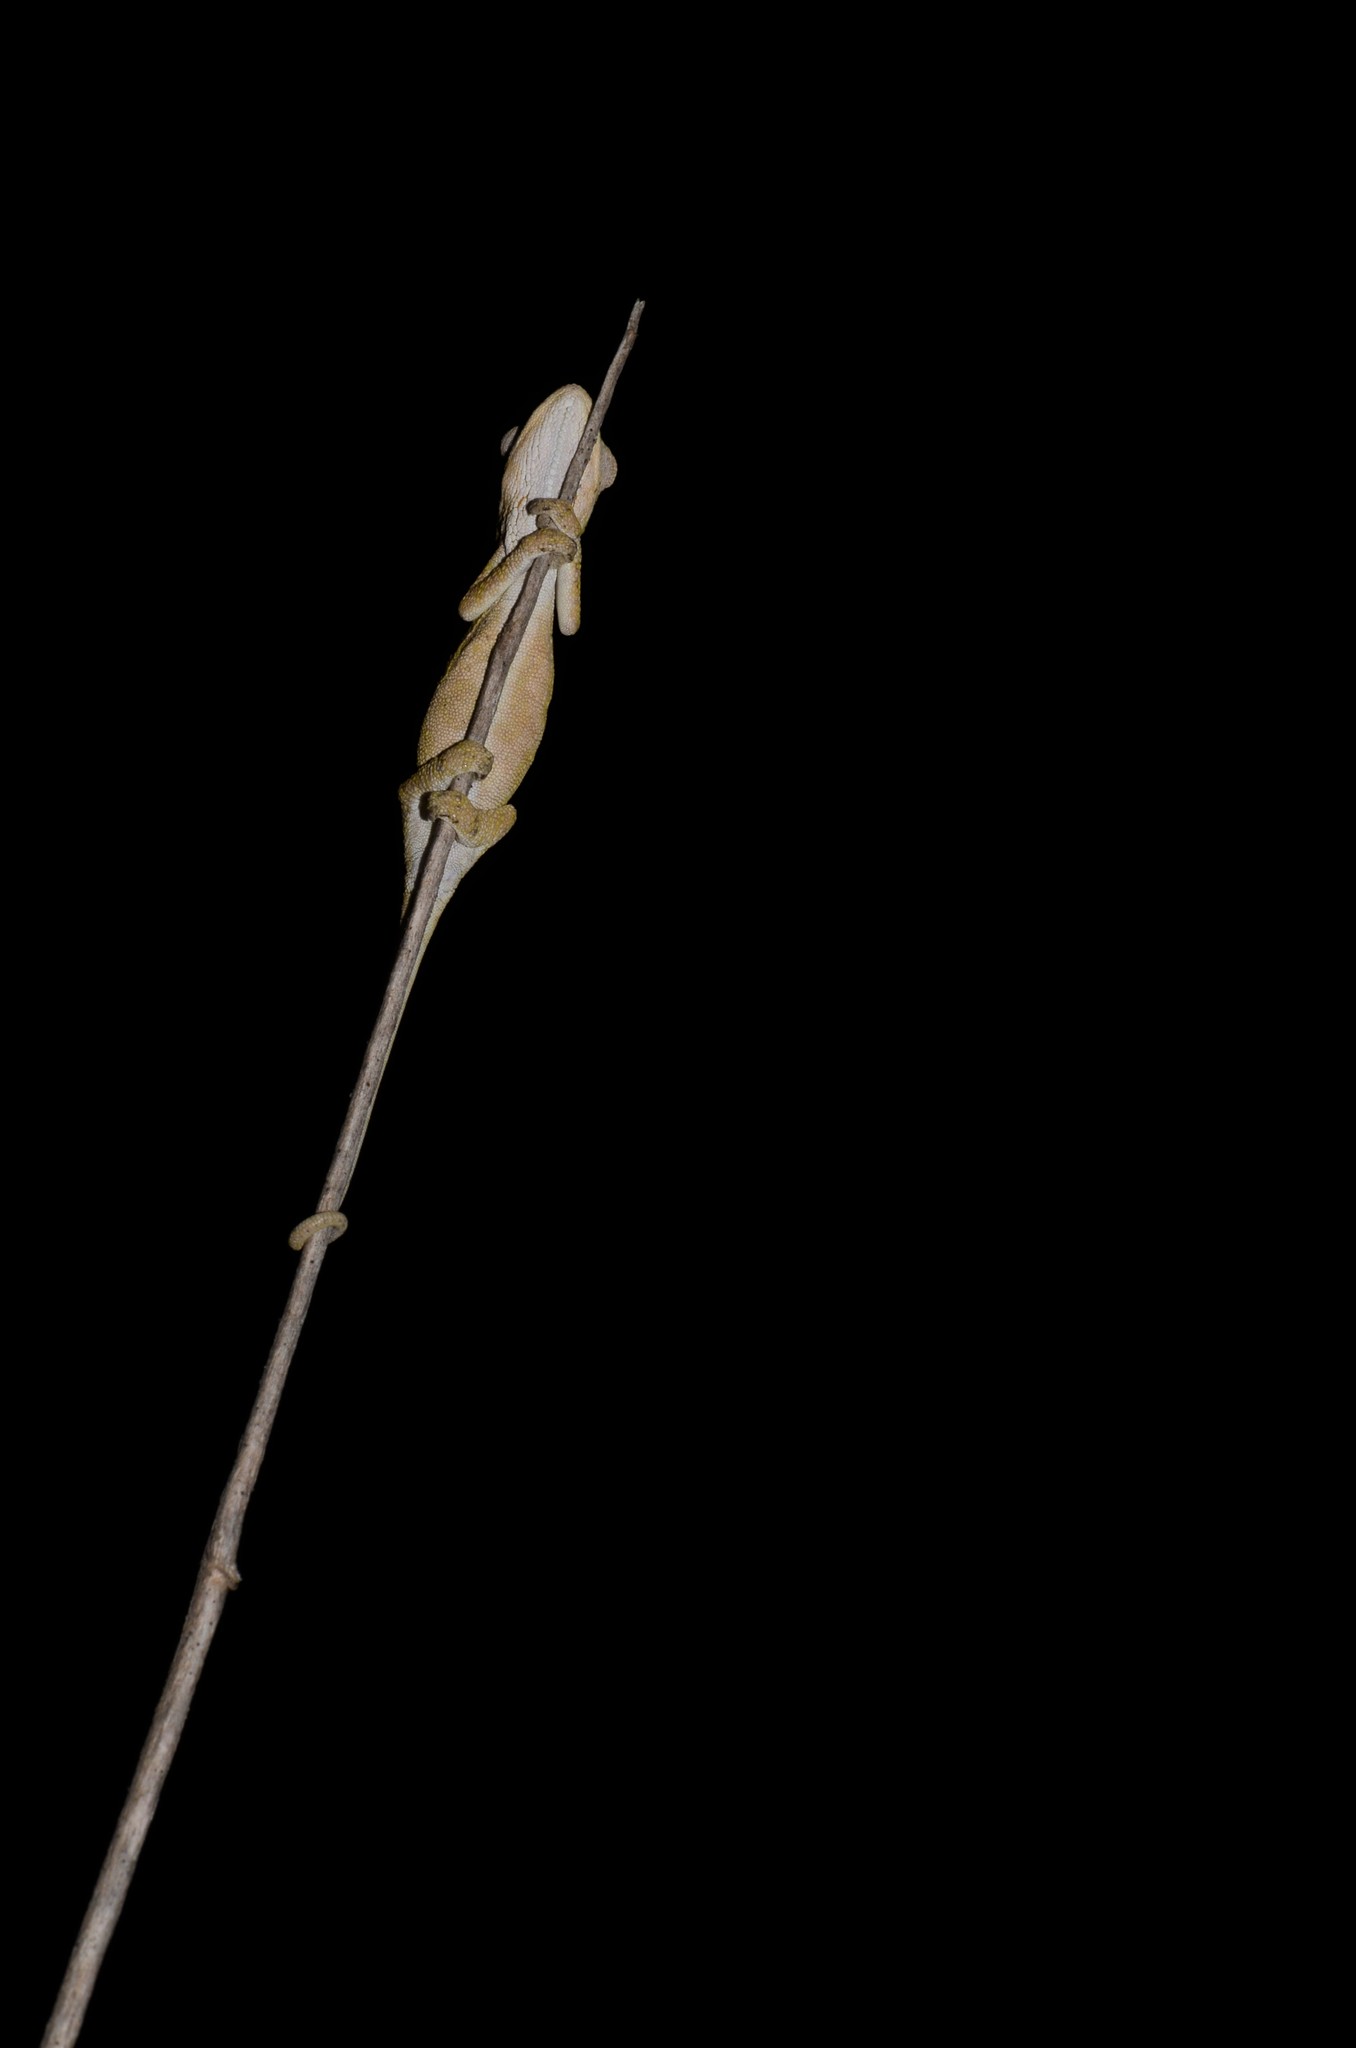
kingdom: Animalia
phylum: Chordata
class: Squamata
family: Chamaeleonidae
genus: Bradypodion
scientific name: Bradypodion pumilum
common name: Cape dwarf chameleon
